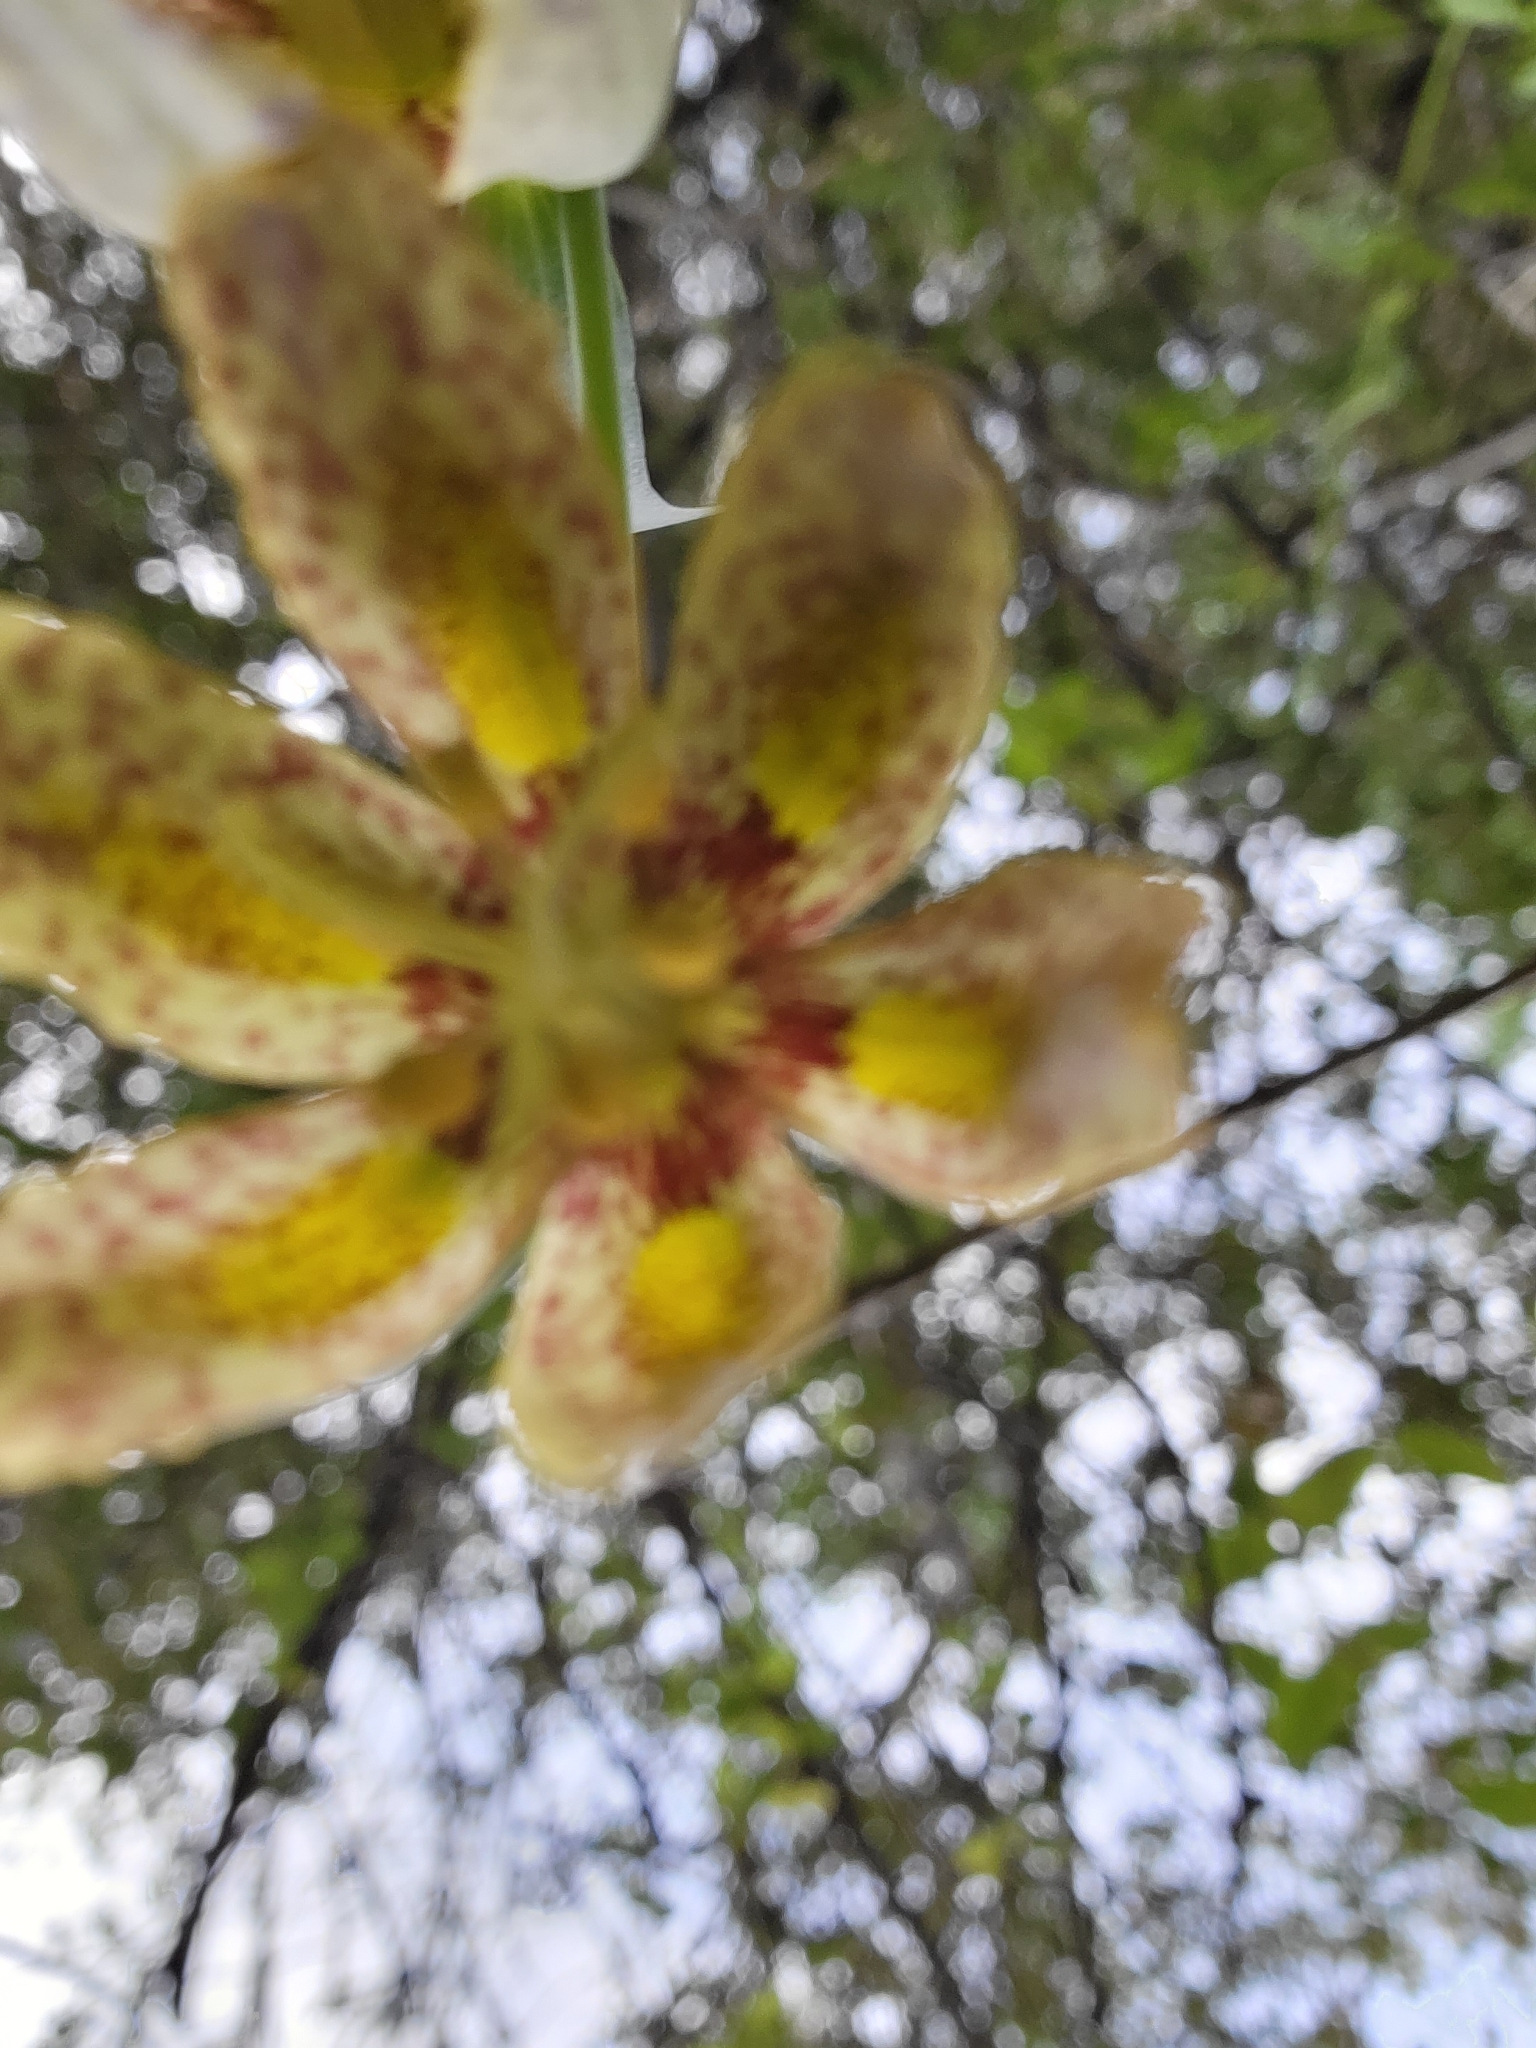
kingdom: Plantae
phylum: Tracheophyta
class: Liliopsida
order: Liliales
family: Liliaceae
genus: Fritillaria
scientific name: Fritillaria affinis
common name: Ojai fritillary
